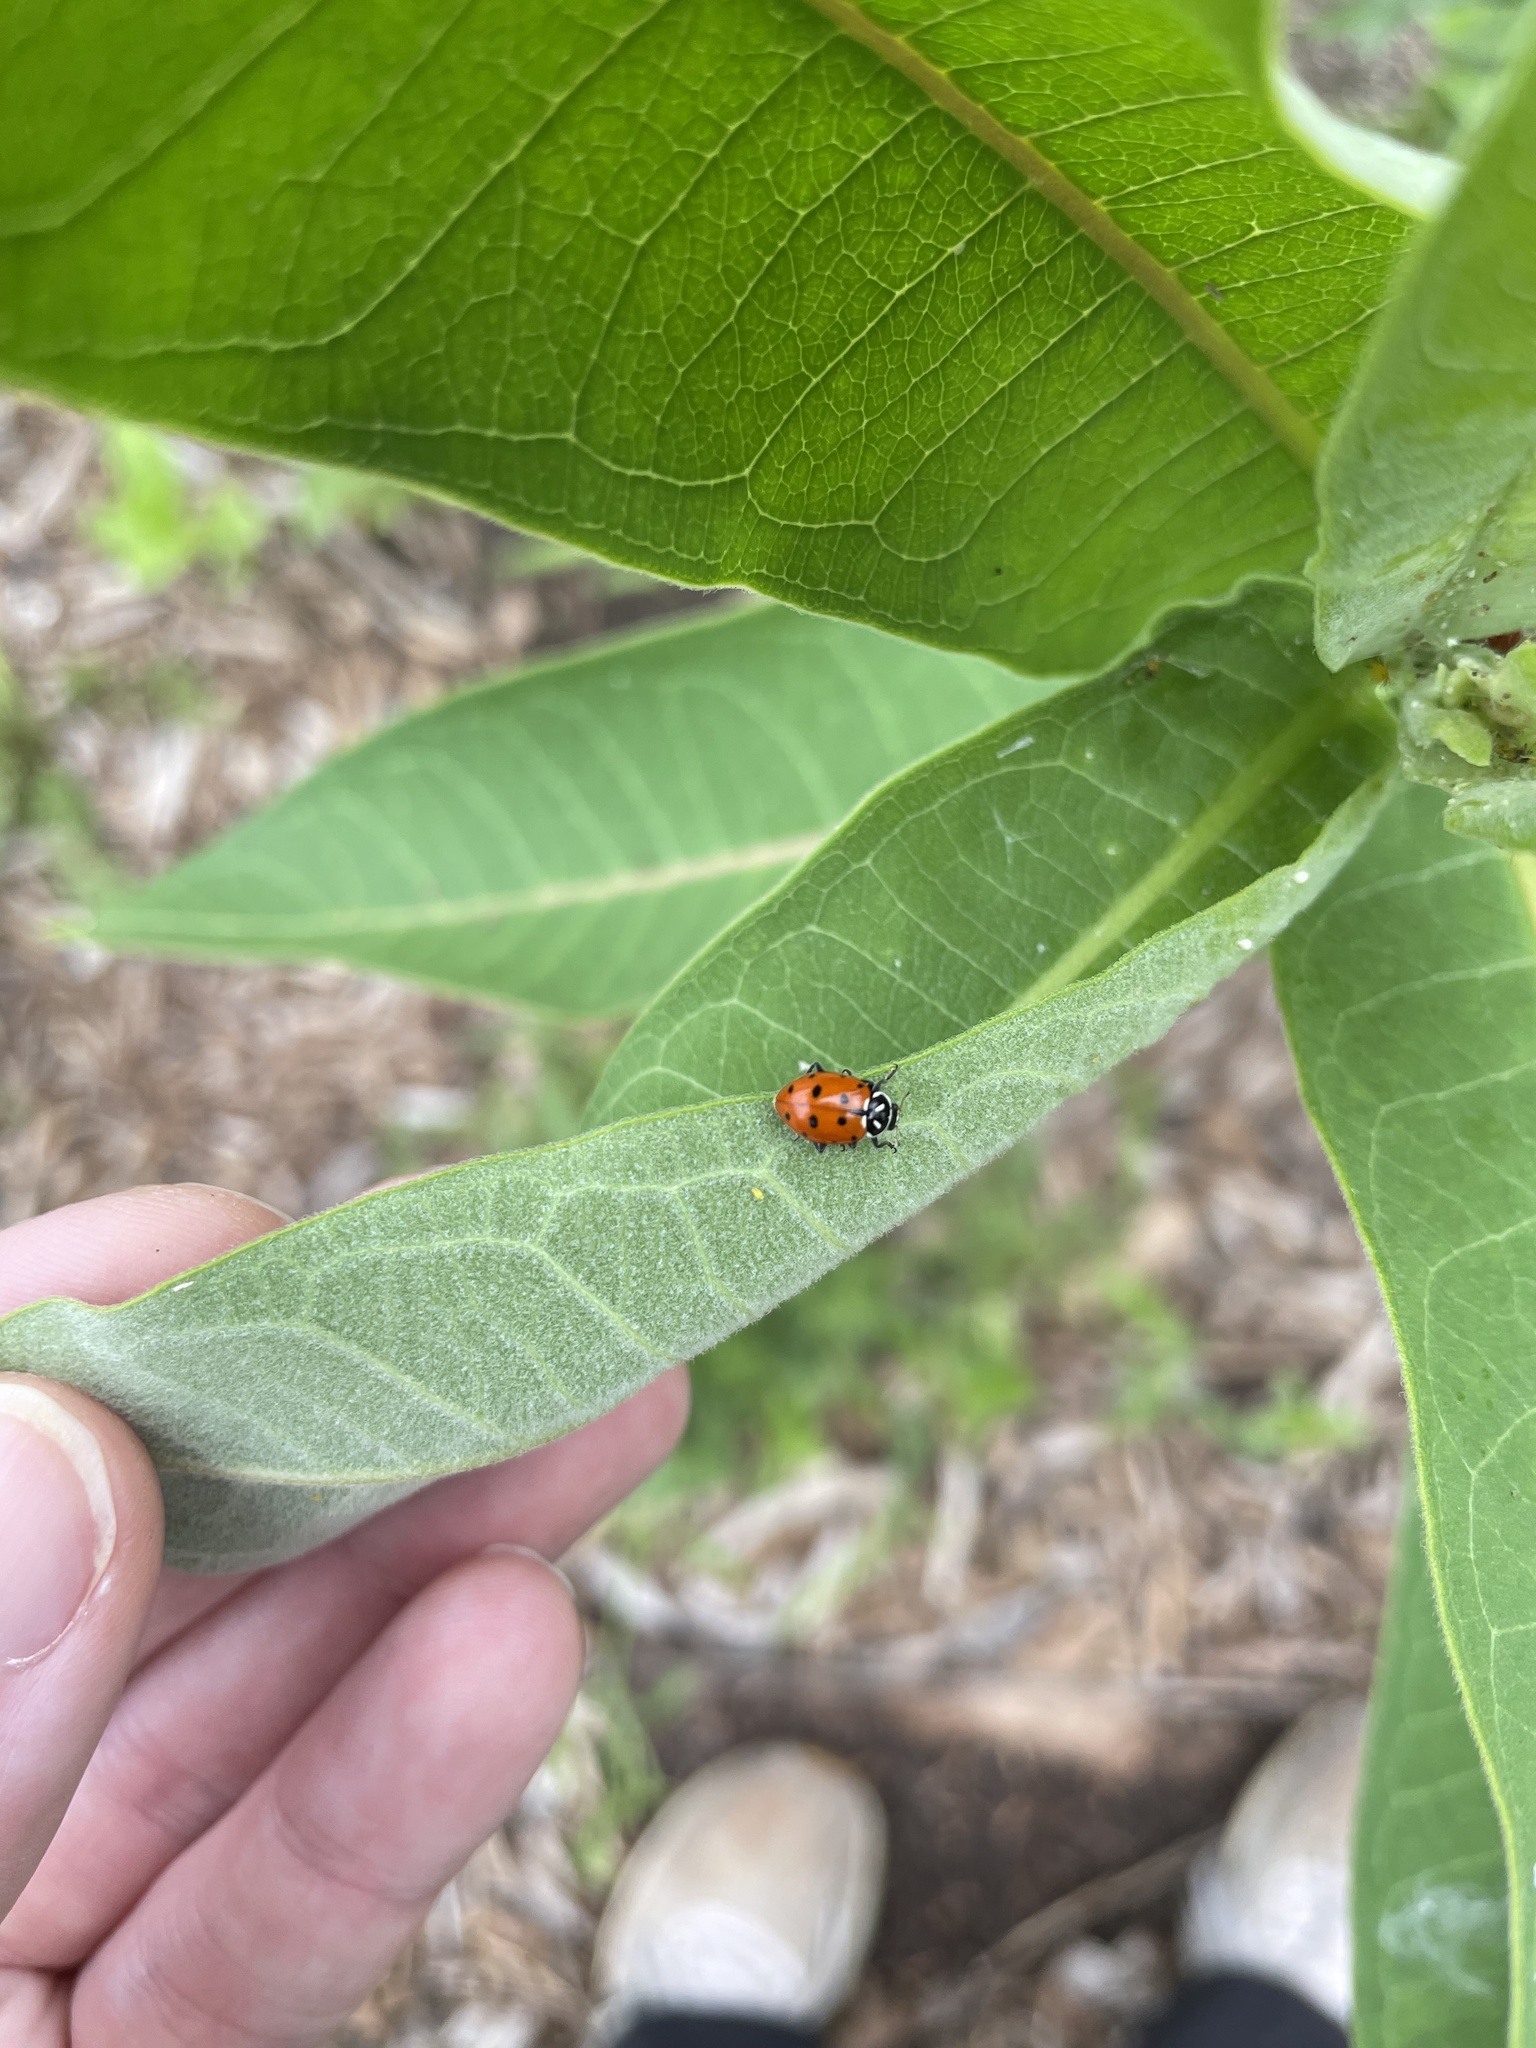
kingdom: Animalia
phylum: Arthropoda
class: Insecta
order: Coleoptera
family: Coccinellidae
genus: Hippodamia
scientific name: Hippodamia convergens
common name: Convergent lady beetle
